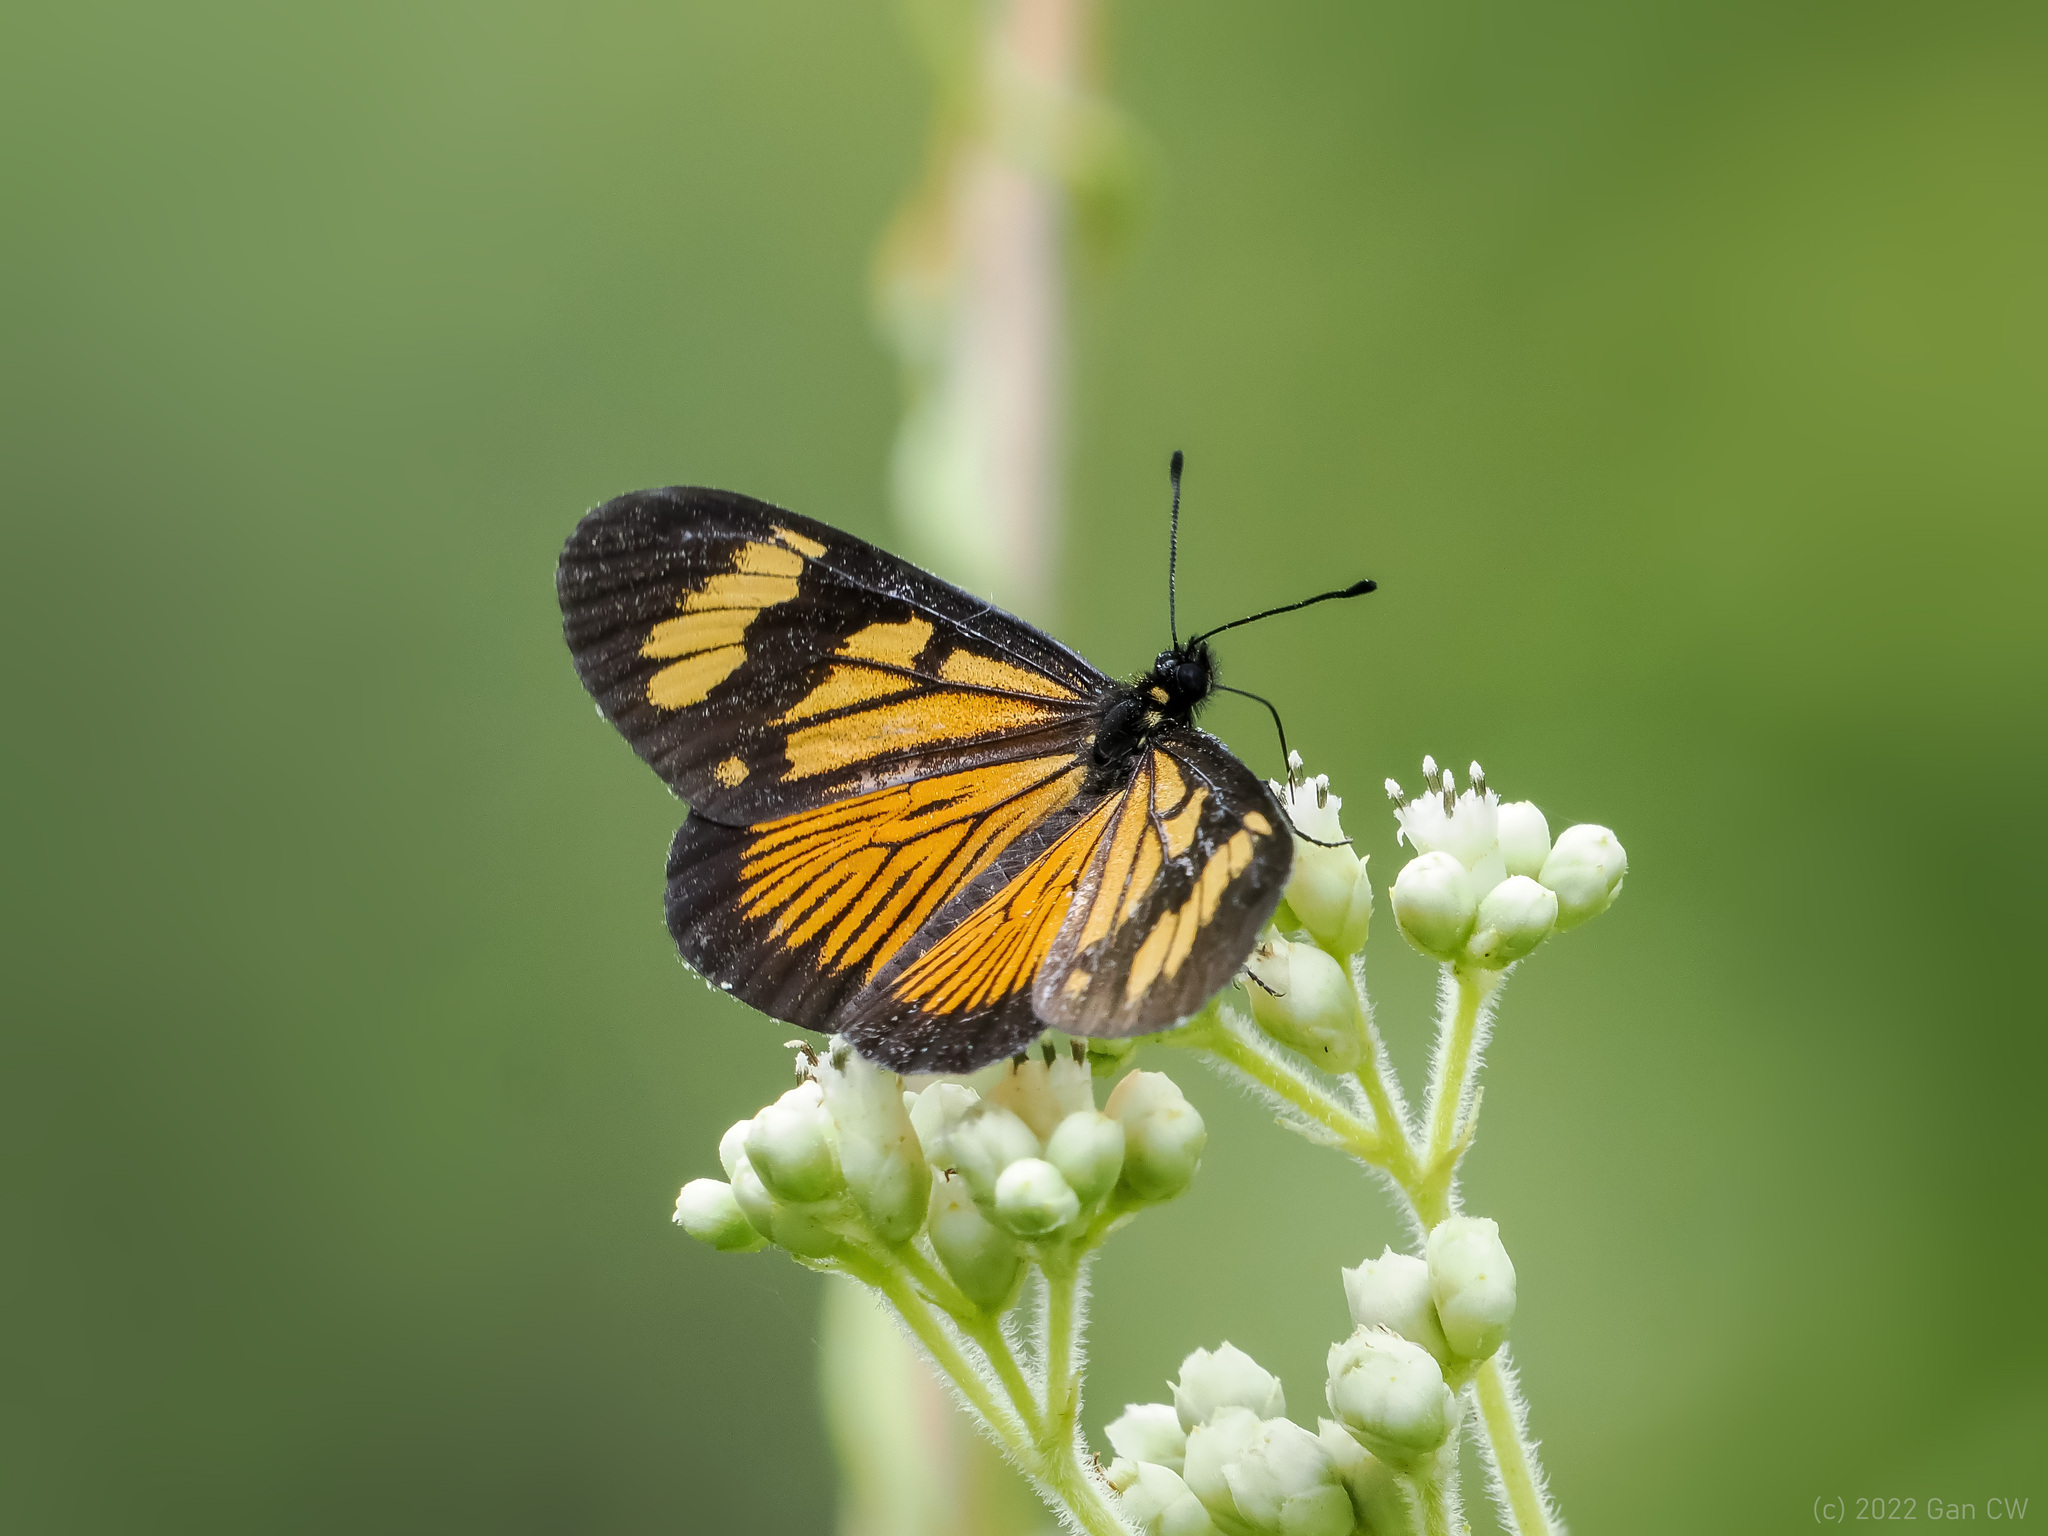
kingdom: Animalia
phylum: Arthropoda
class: Insecta
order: Lepidoptera
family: Nymphalidae
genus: Actinote
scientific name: Actinote anteas
